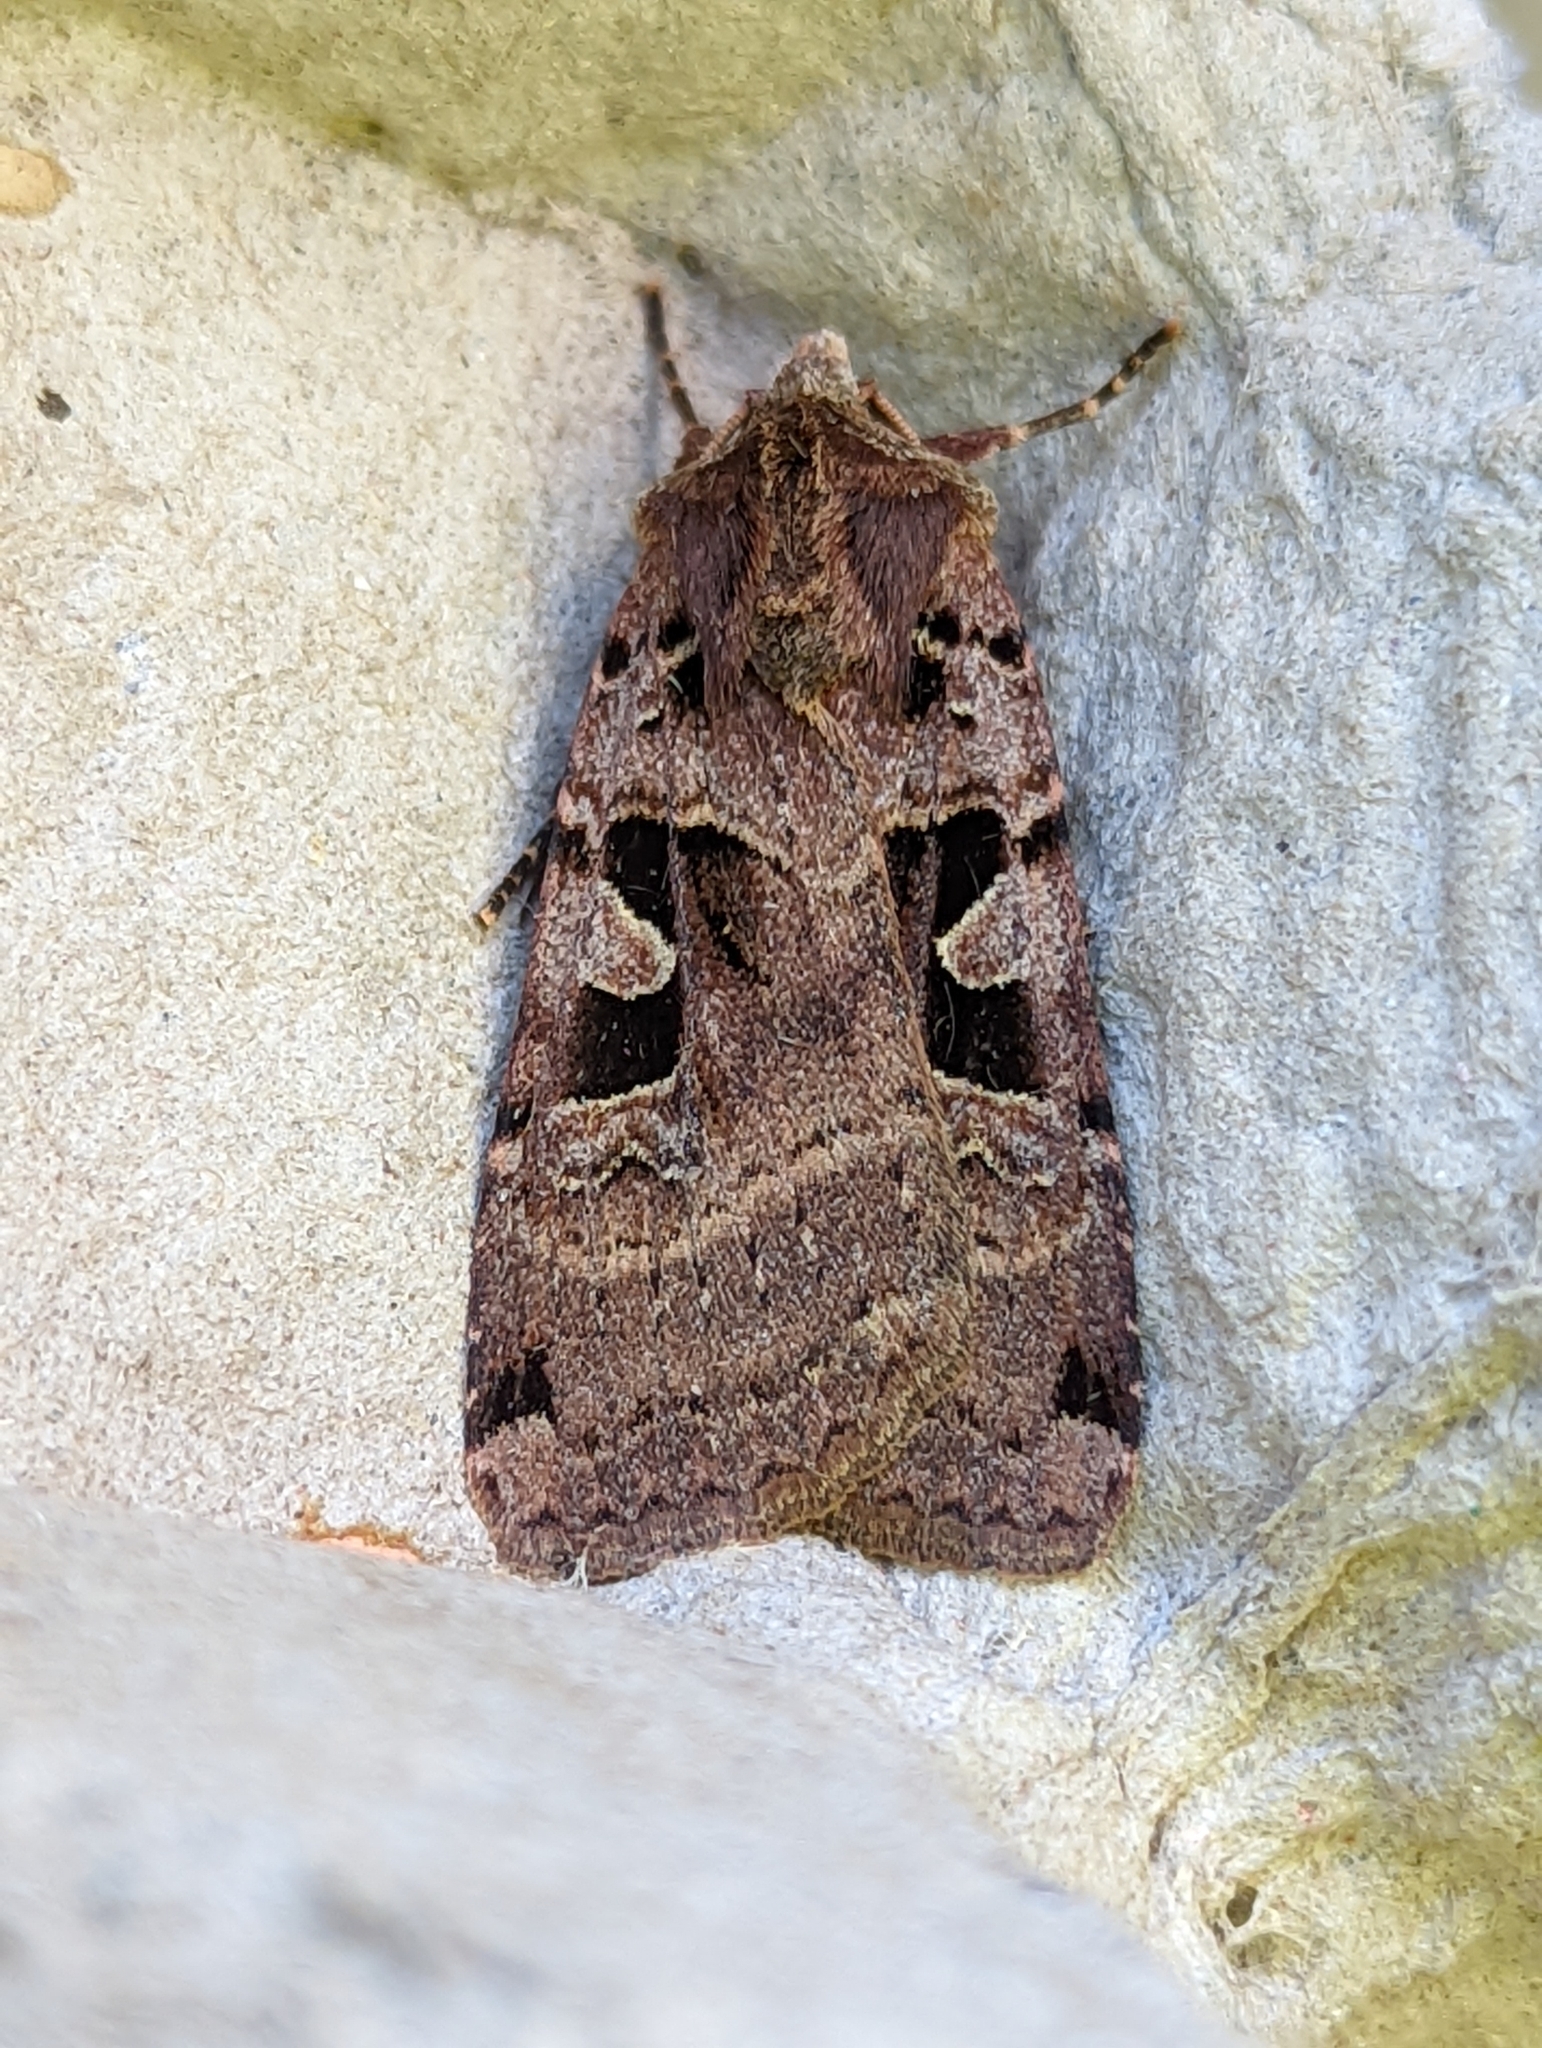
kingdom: Animalia
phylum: Arthropoda
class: Insecta
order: Lepidoptera
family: Noctuidae
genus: Xestia
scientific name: Xestia triangulum
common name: Double square-spot
